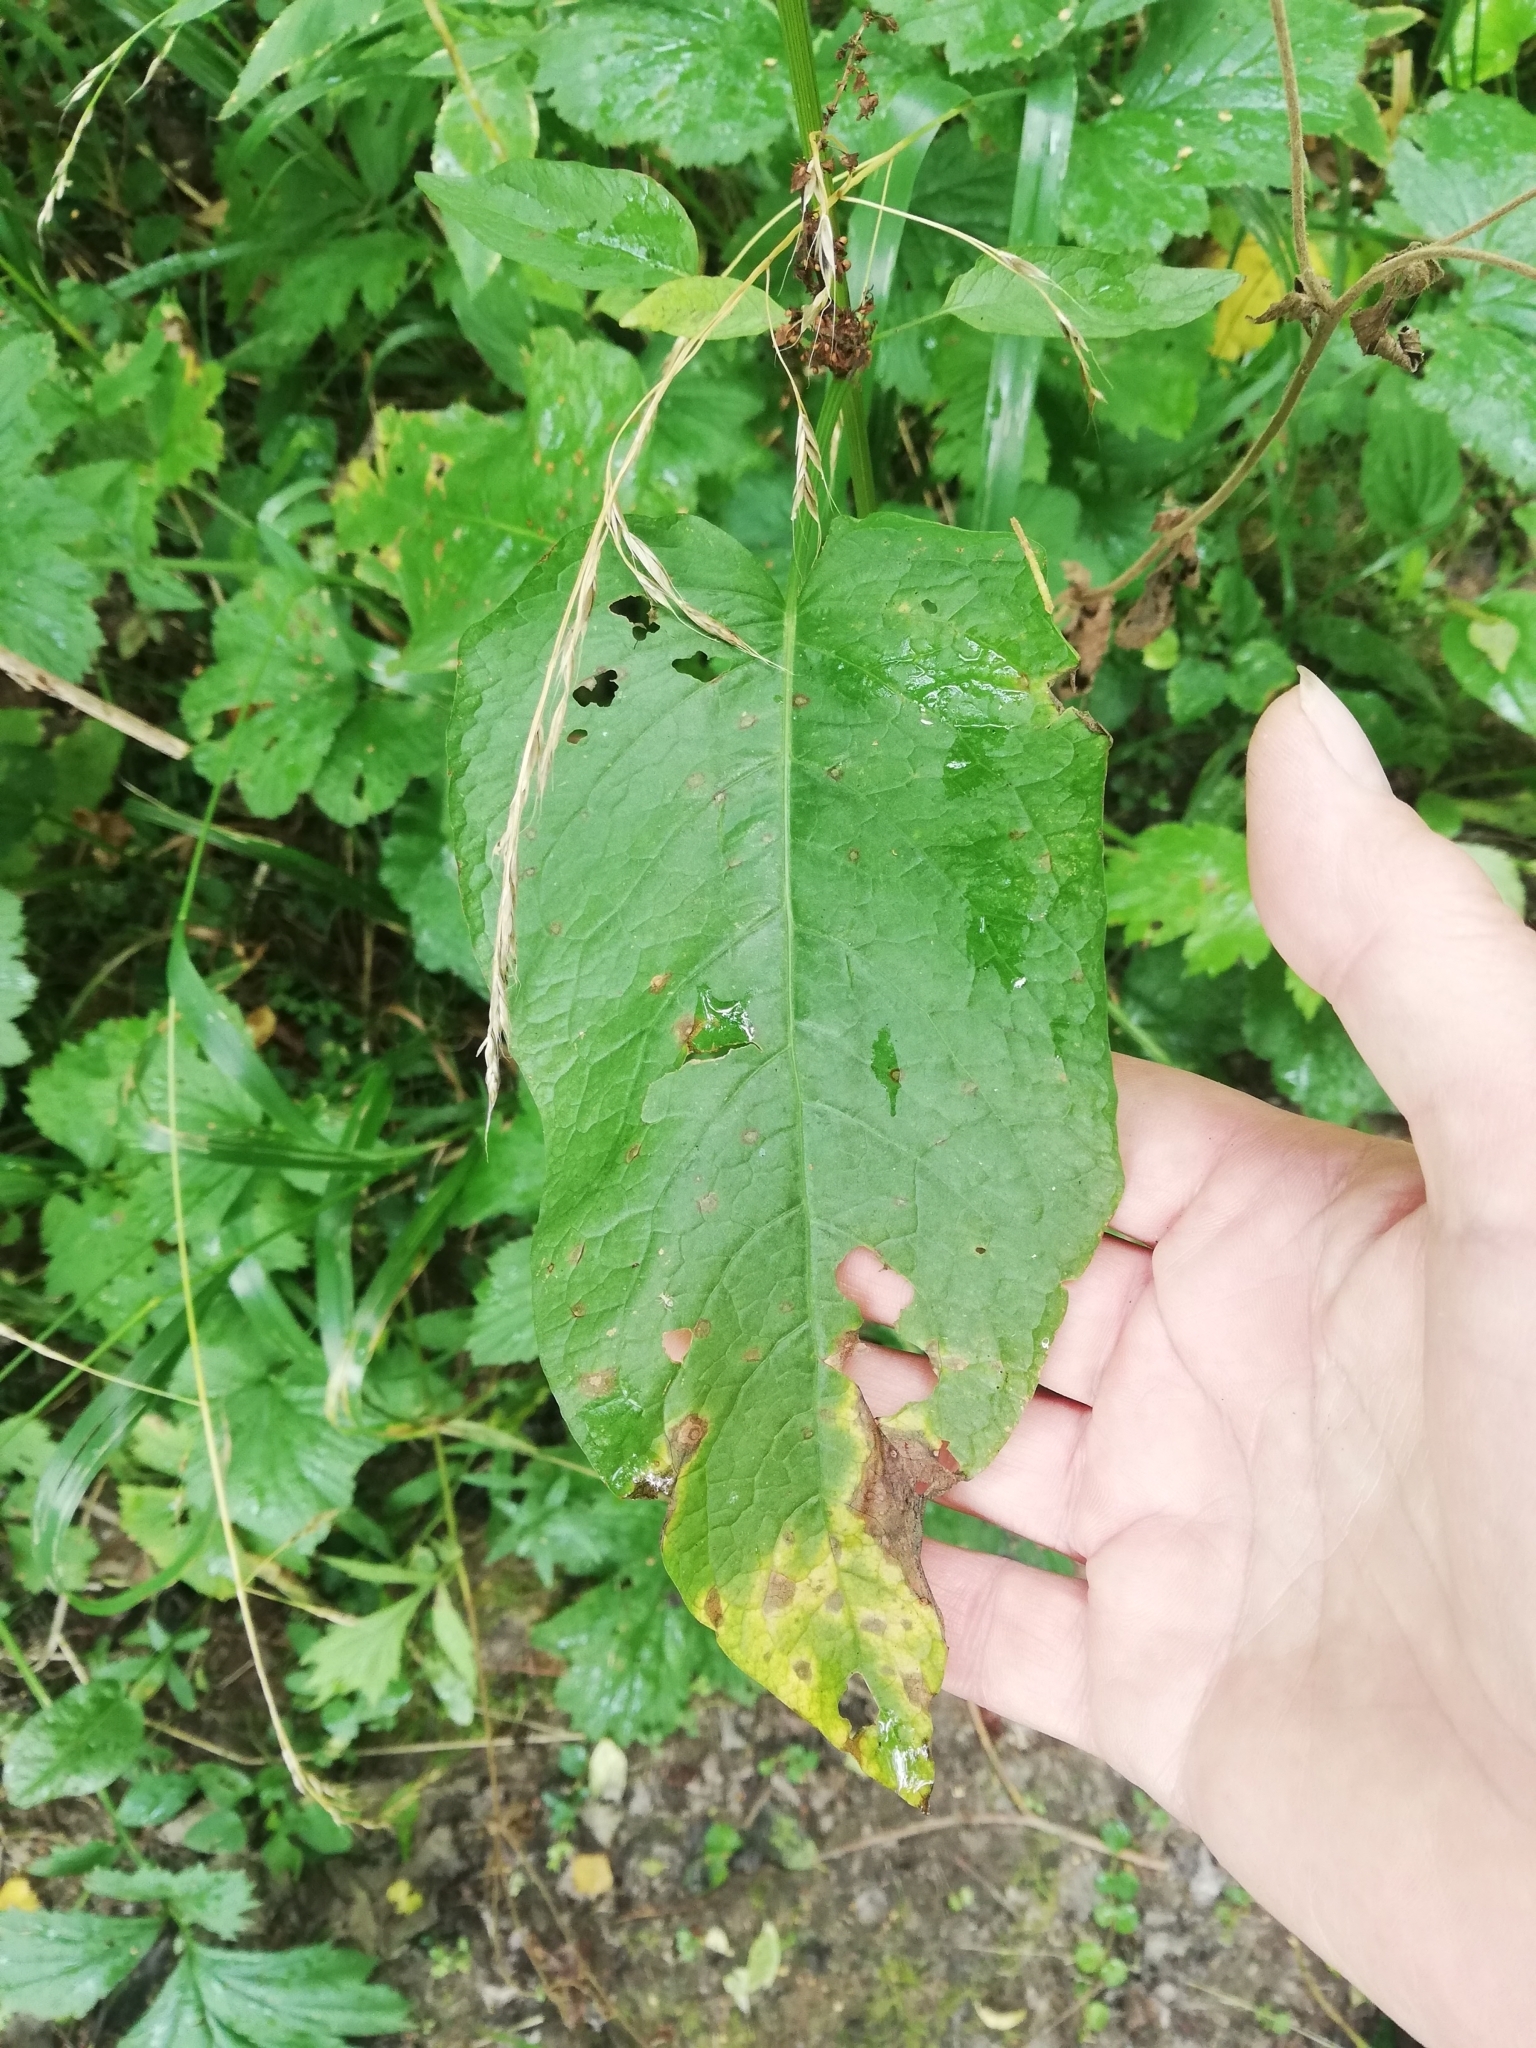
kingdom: Plantae
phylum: Tracheophyta
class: Magnoliopsida
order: Caryophyllales
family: Polygonaceae
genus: Rumex
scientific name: Rumex obtusifolius
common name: Bitter dock
